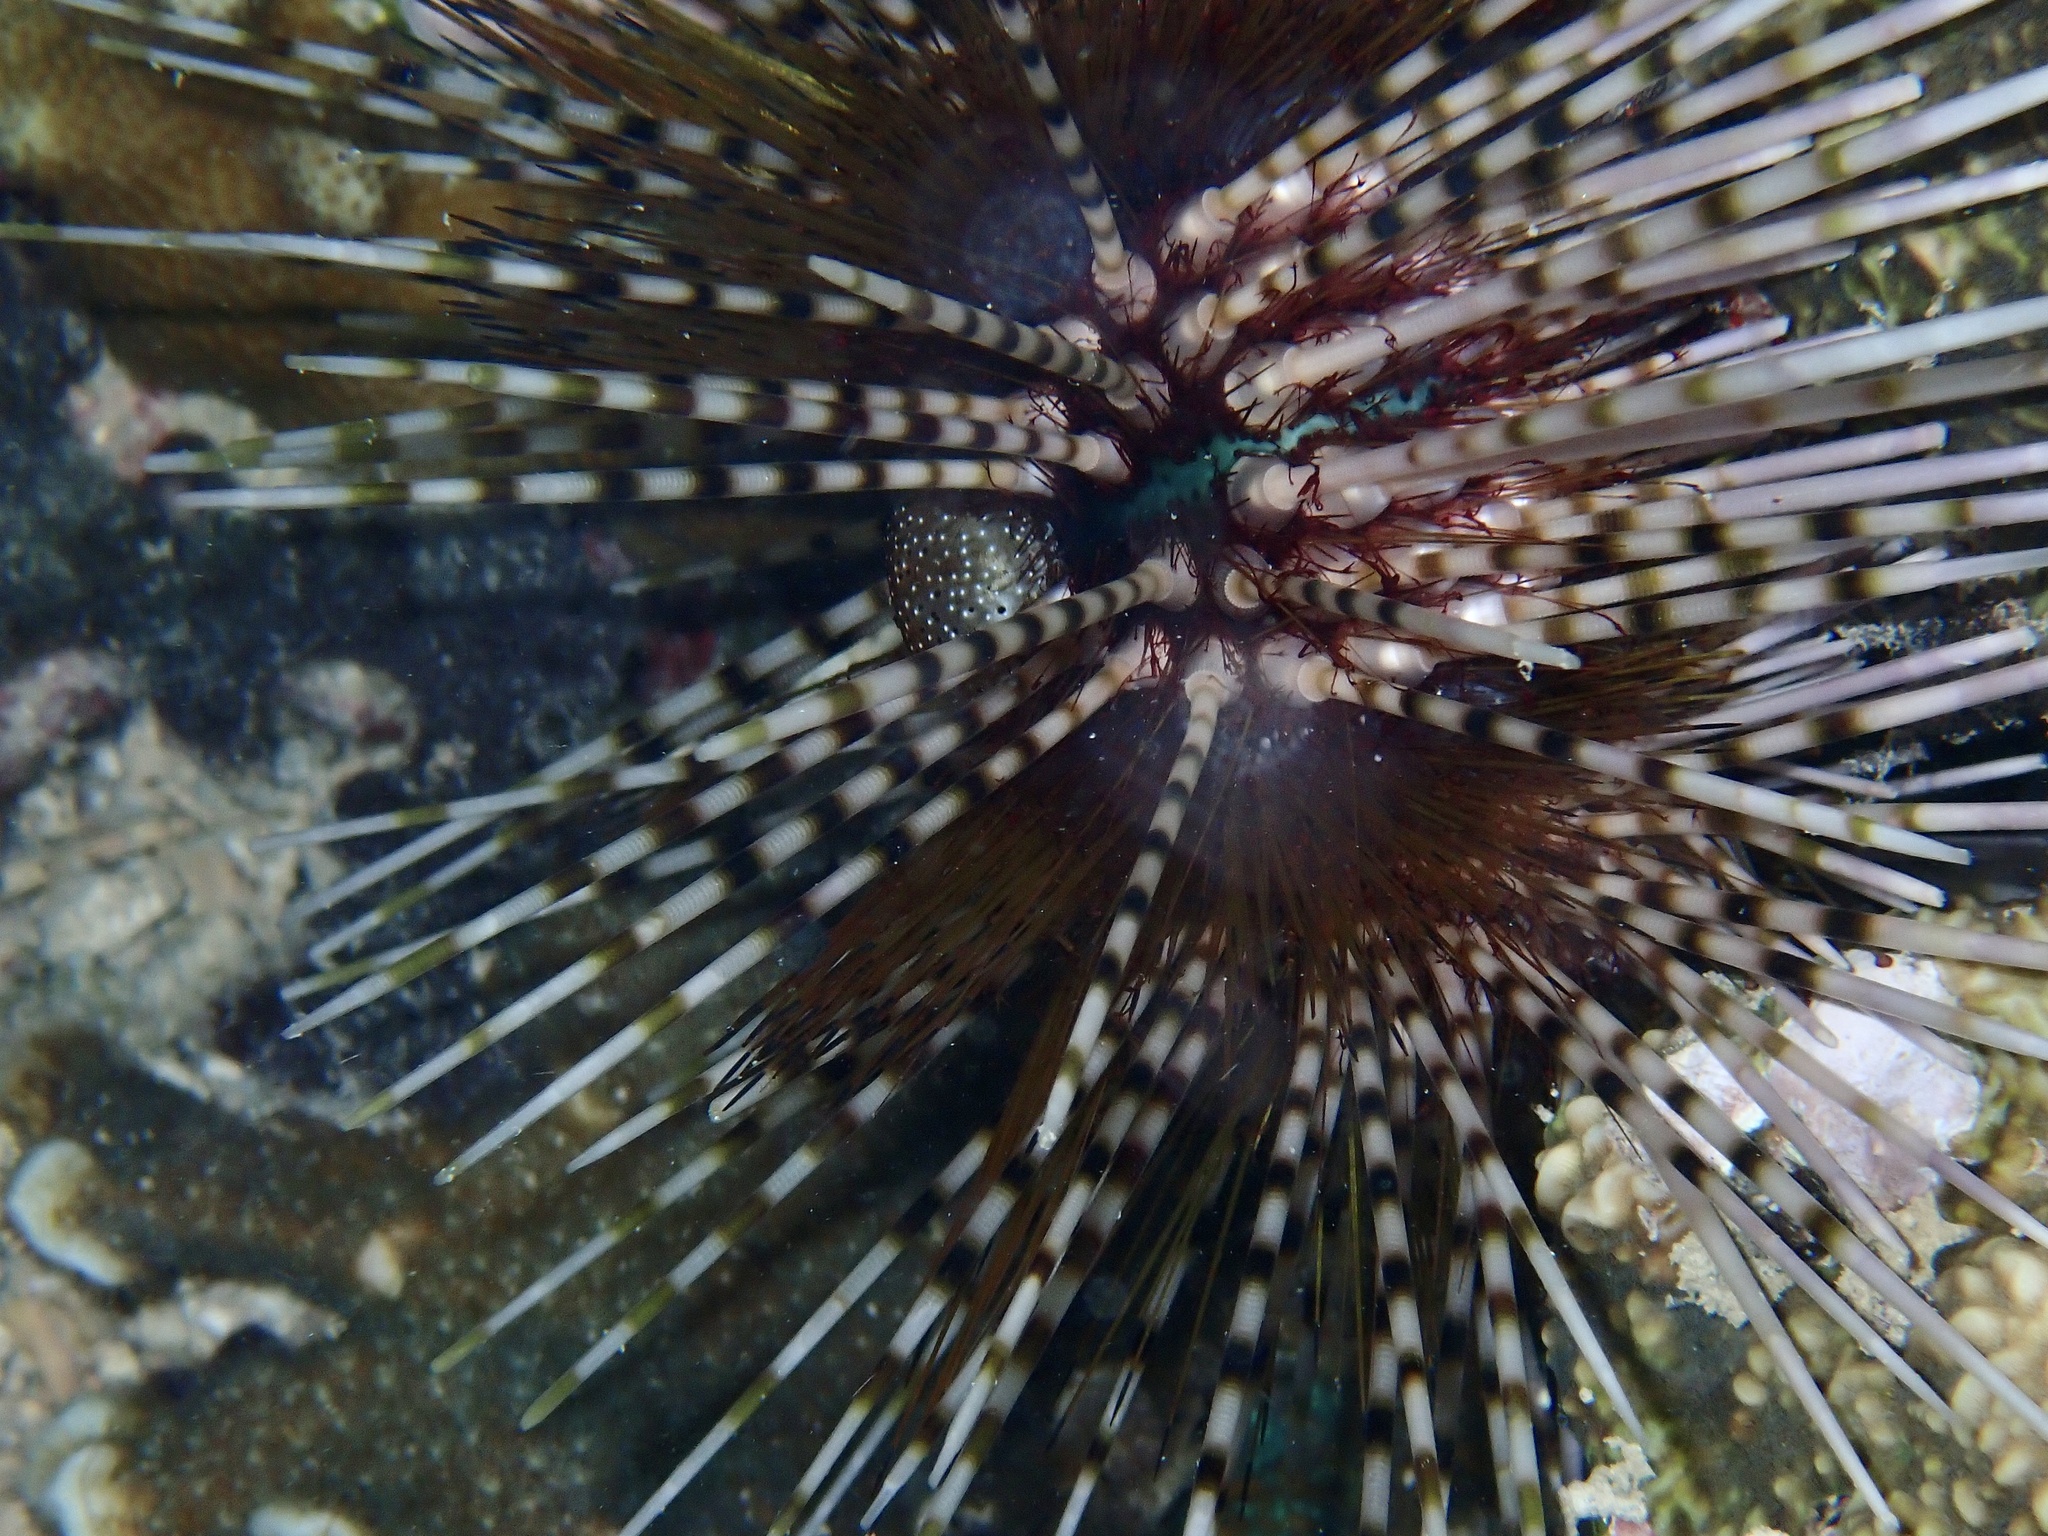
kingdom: Animalia
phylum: Echinodermata
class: Echinoidea
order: Diadematoida
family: Diadematidae
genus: Echinothrix
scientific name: Echinothrix calamaris
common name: Banded sea urchin
